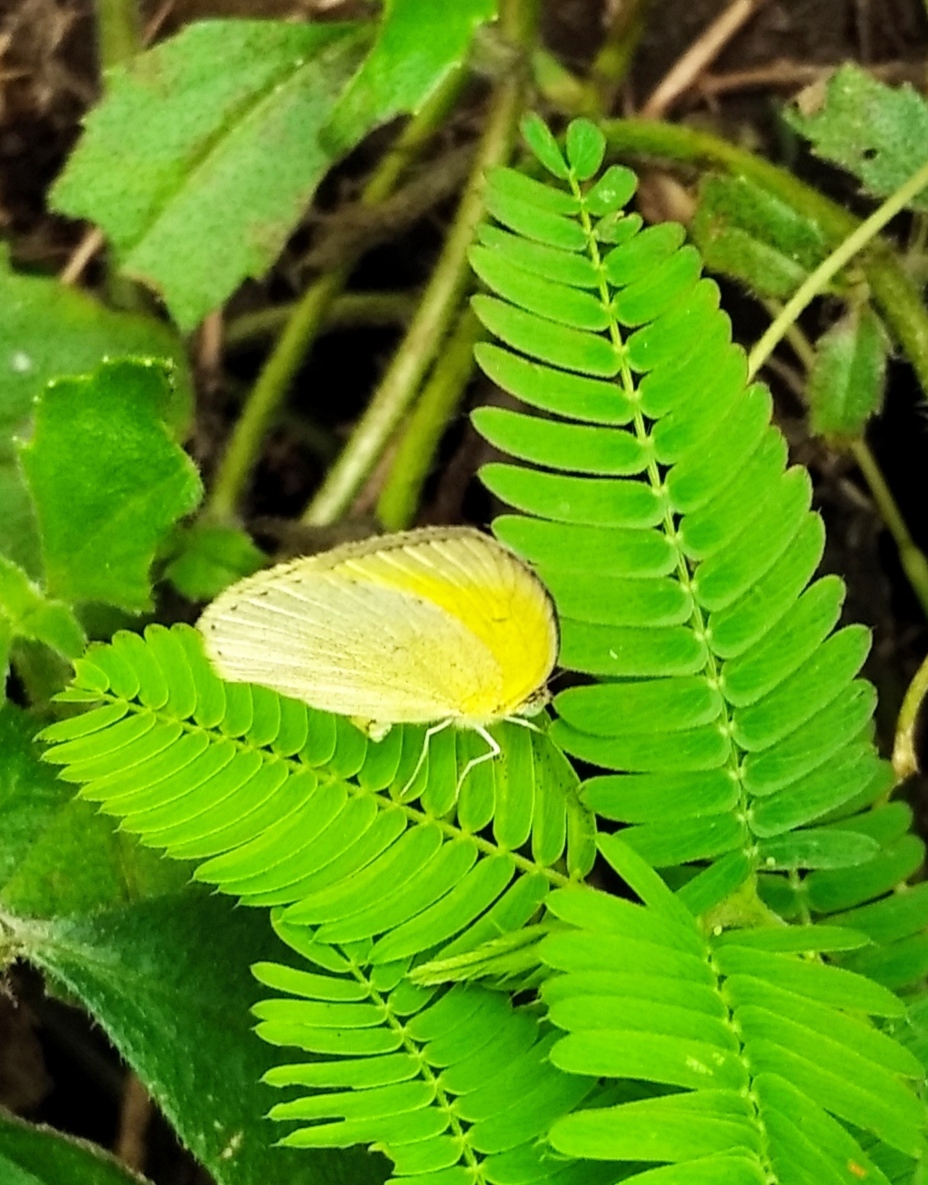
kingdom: Animalia
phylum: Arthropoda
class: Insecta
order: Lepidoptera
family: Pieridae
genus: Eurema
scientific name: Eurema laeta
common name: Spotless grass yellow
